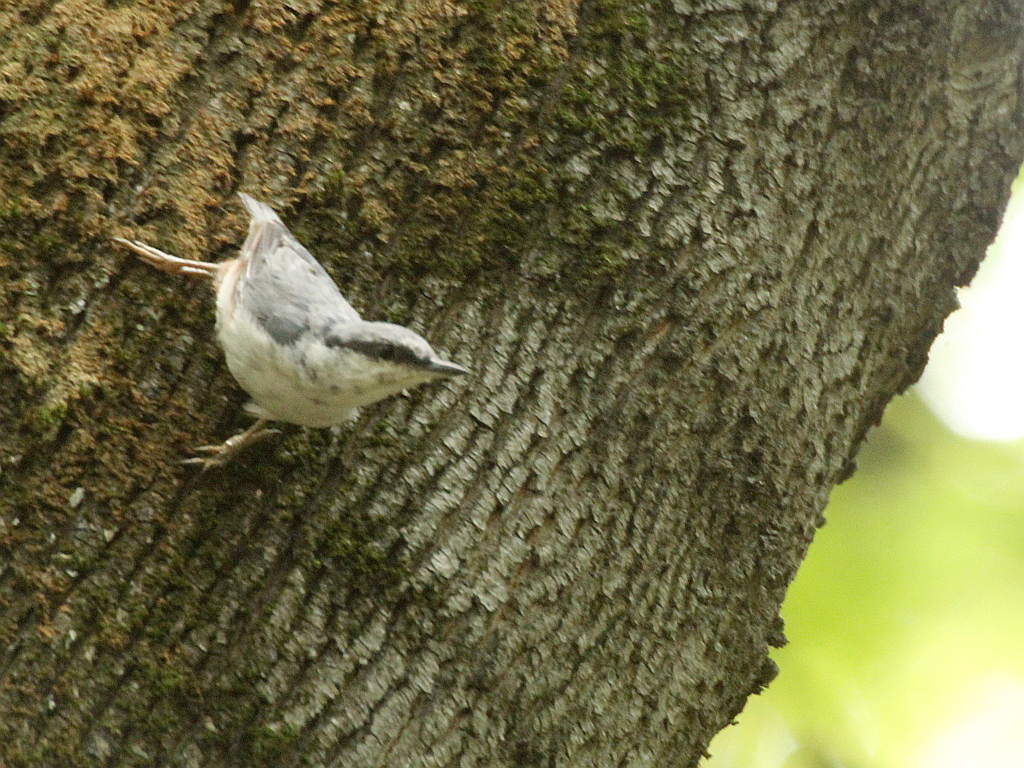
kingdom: Animalia
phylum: Chordata
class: Aves
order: Passeriformes
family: Sittidae
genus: Sitta
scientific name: Sitta europaea
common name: Eurasian nuthatch
